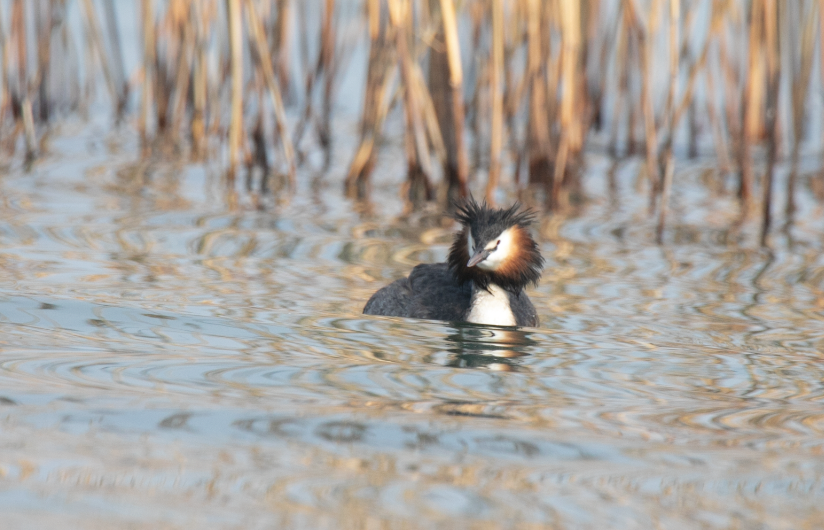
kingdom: Animalia
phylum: Chordata
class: Aves
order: Podicipediformes
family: Podicipedidae
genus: Podiceps
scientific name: Podiceps cristatus
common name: Great crested grebe
